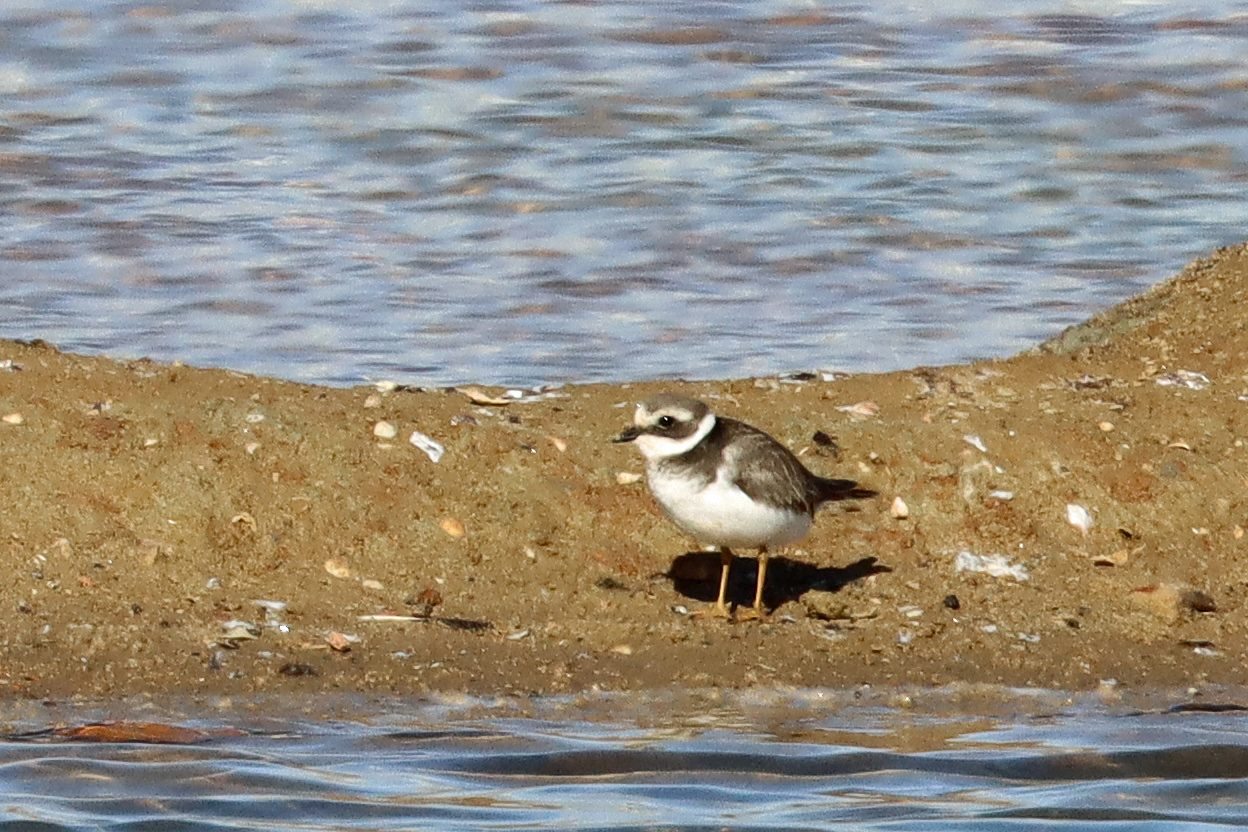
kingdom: Animalia
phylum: Chordata
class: Aves
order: Charadriiformes
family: Charadriidae
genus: Charadrius
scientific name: Charadrius hiaticula
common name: Common ringed plover
